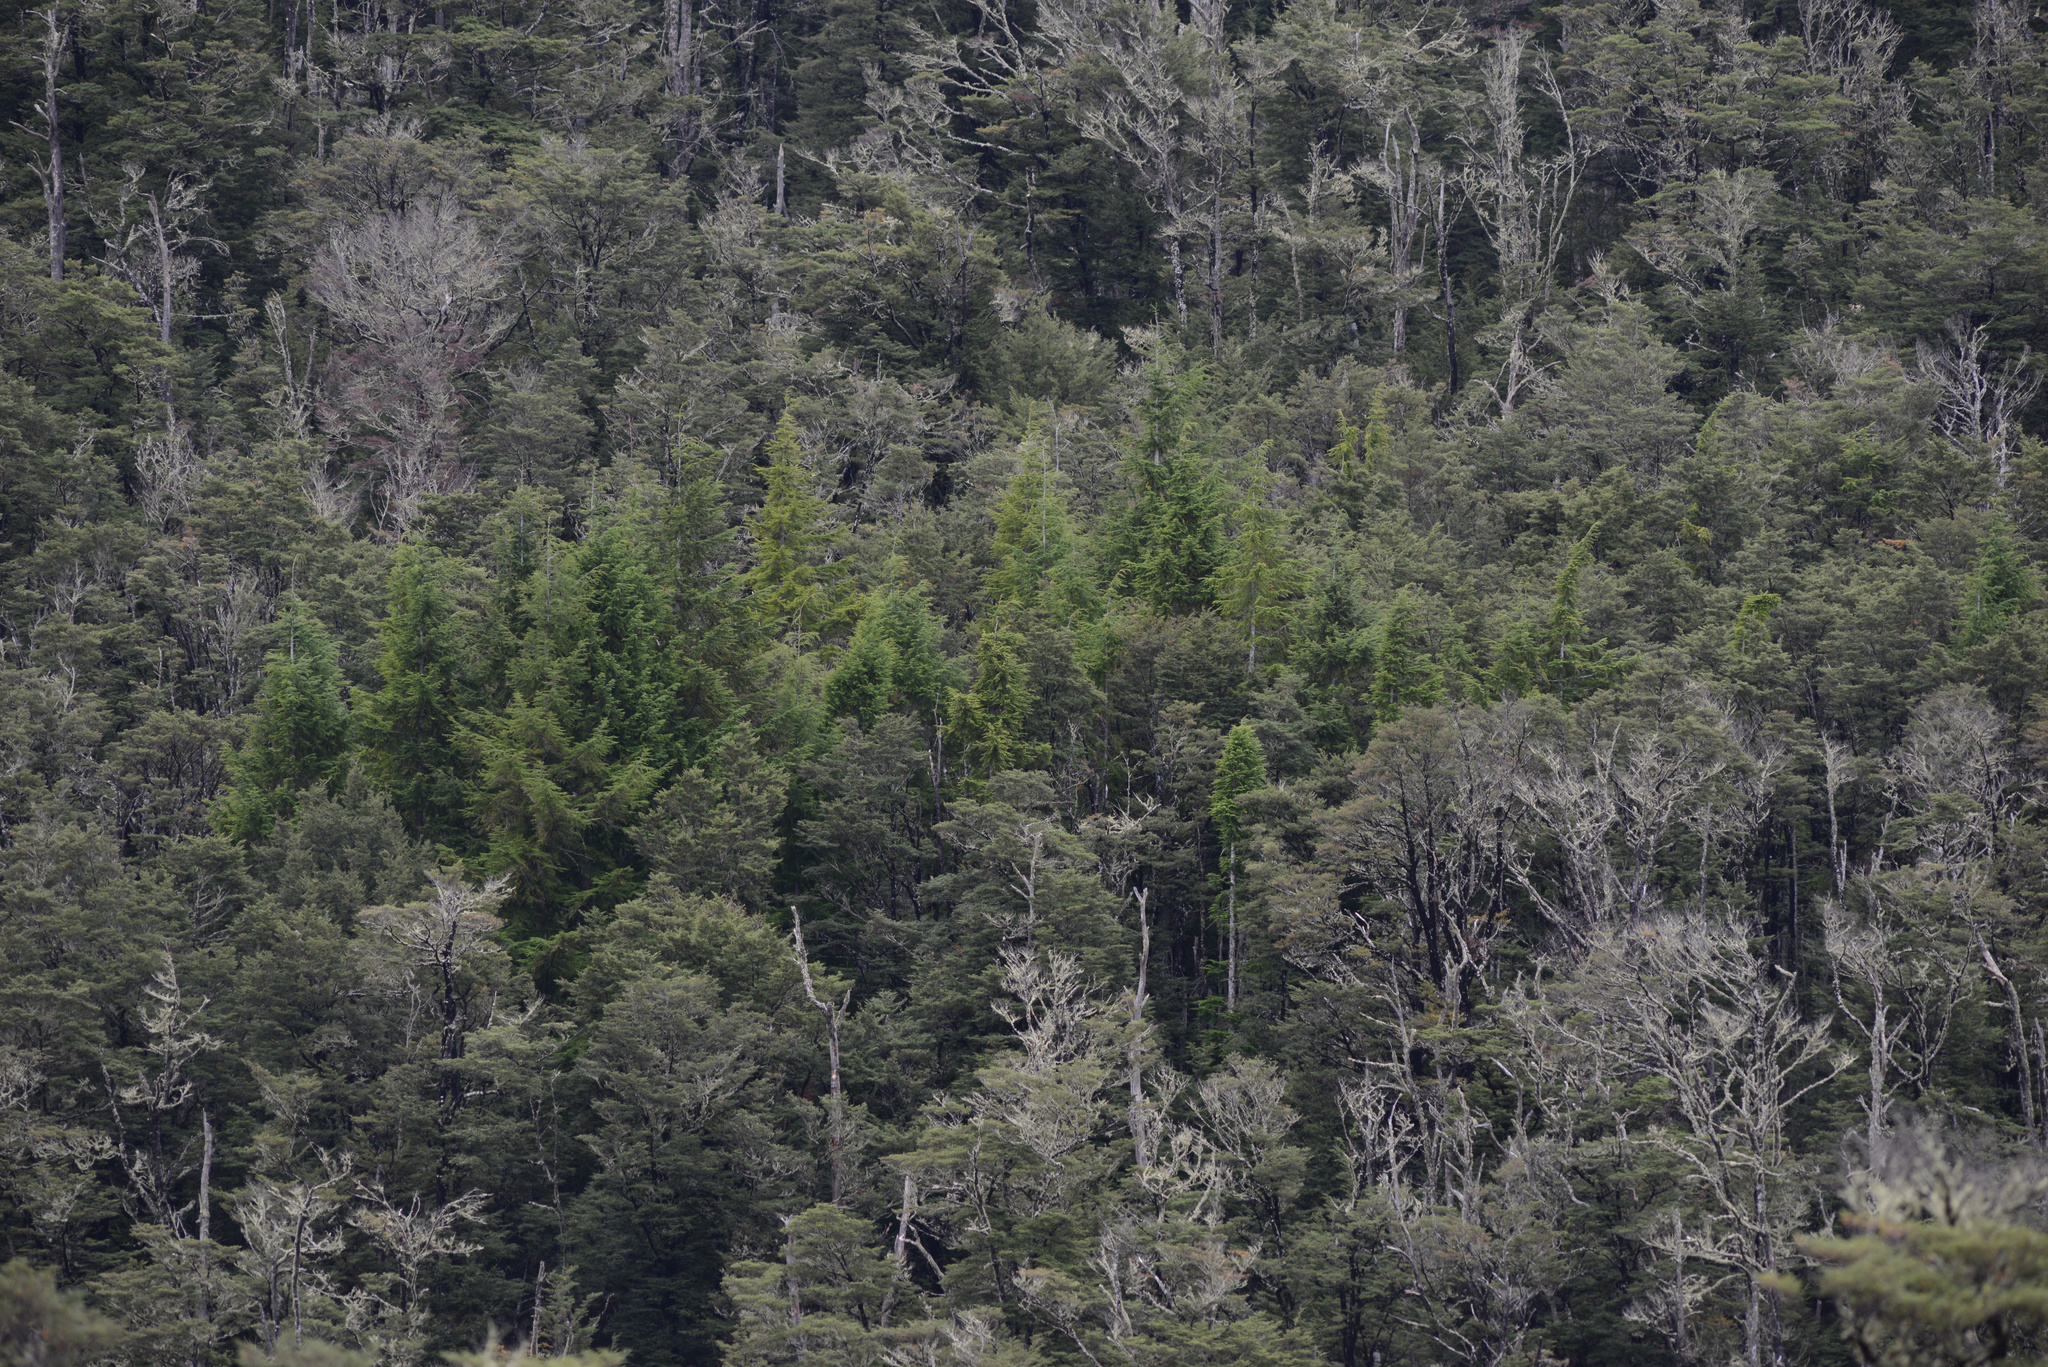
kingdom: Plantae
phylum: Tracheophyta
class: Pinopsida
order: Pinales
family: Pinaceae
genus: Pseudotsuga
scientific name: Pseudotsuga menziesii
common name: Douglas fir
